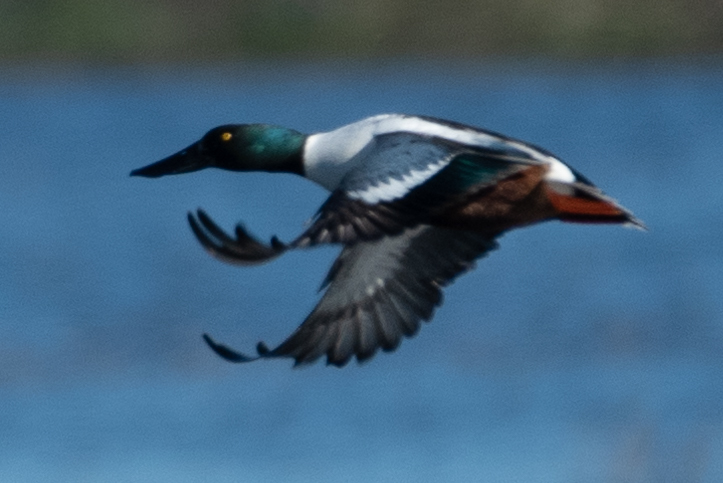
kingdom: Animalia
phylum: Chordata
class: Aves
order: Anseriformes
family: Anatidae
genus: Spatula
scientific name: Spatula clypeata
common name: Northern shoveler
